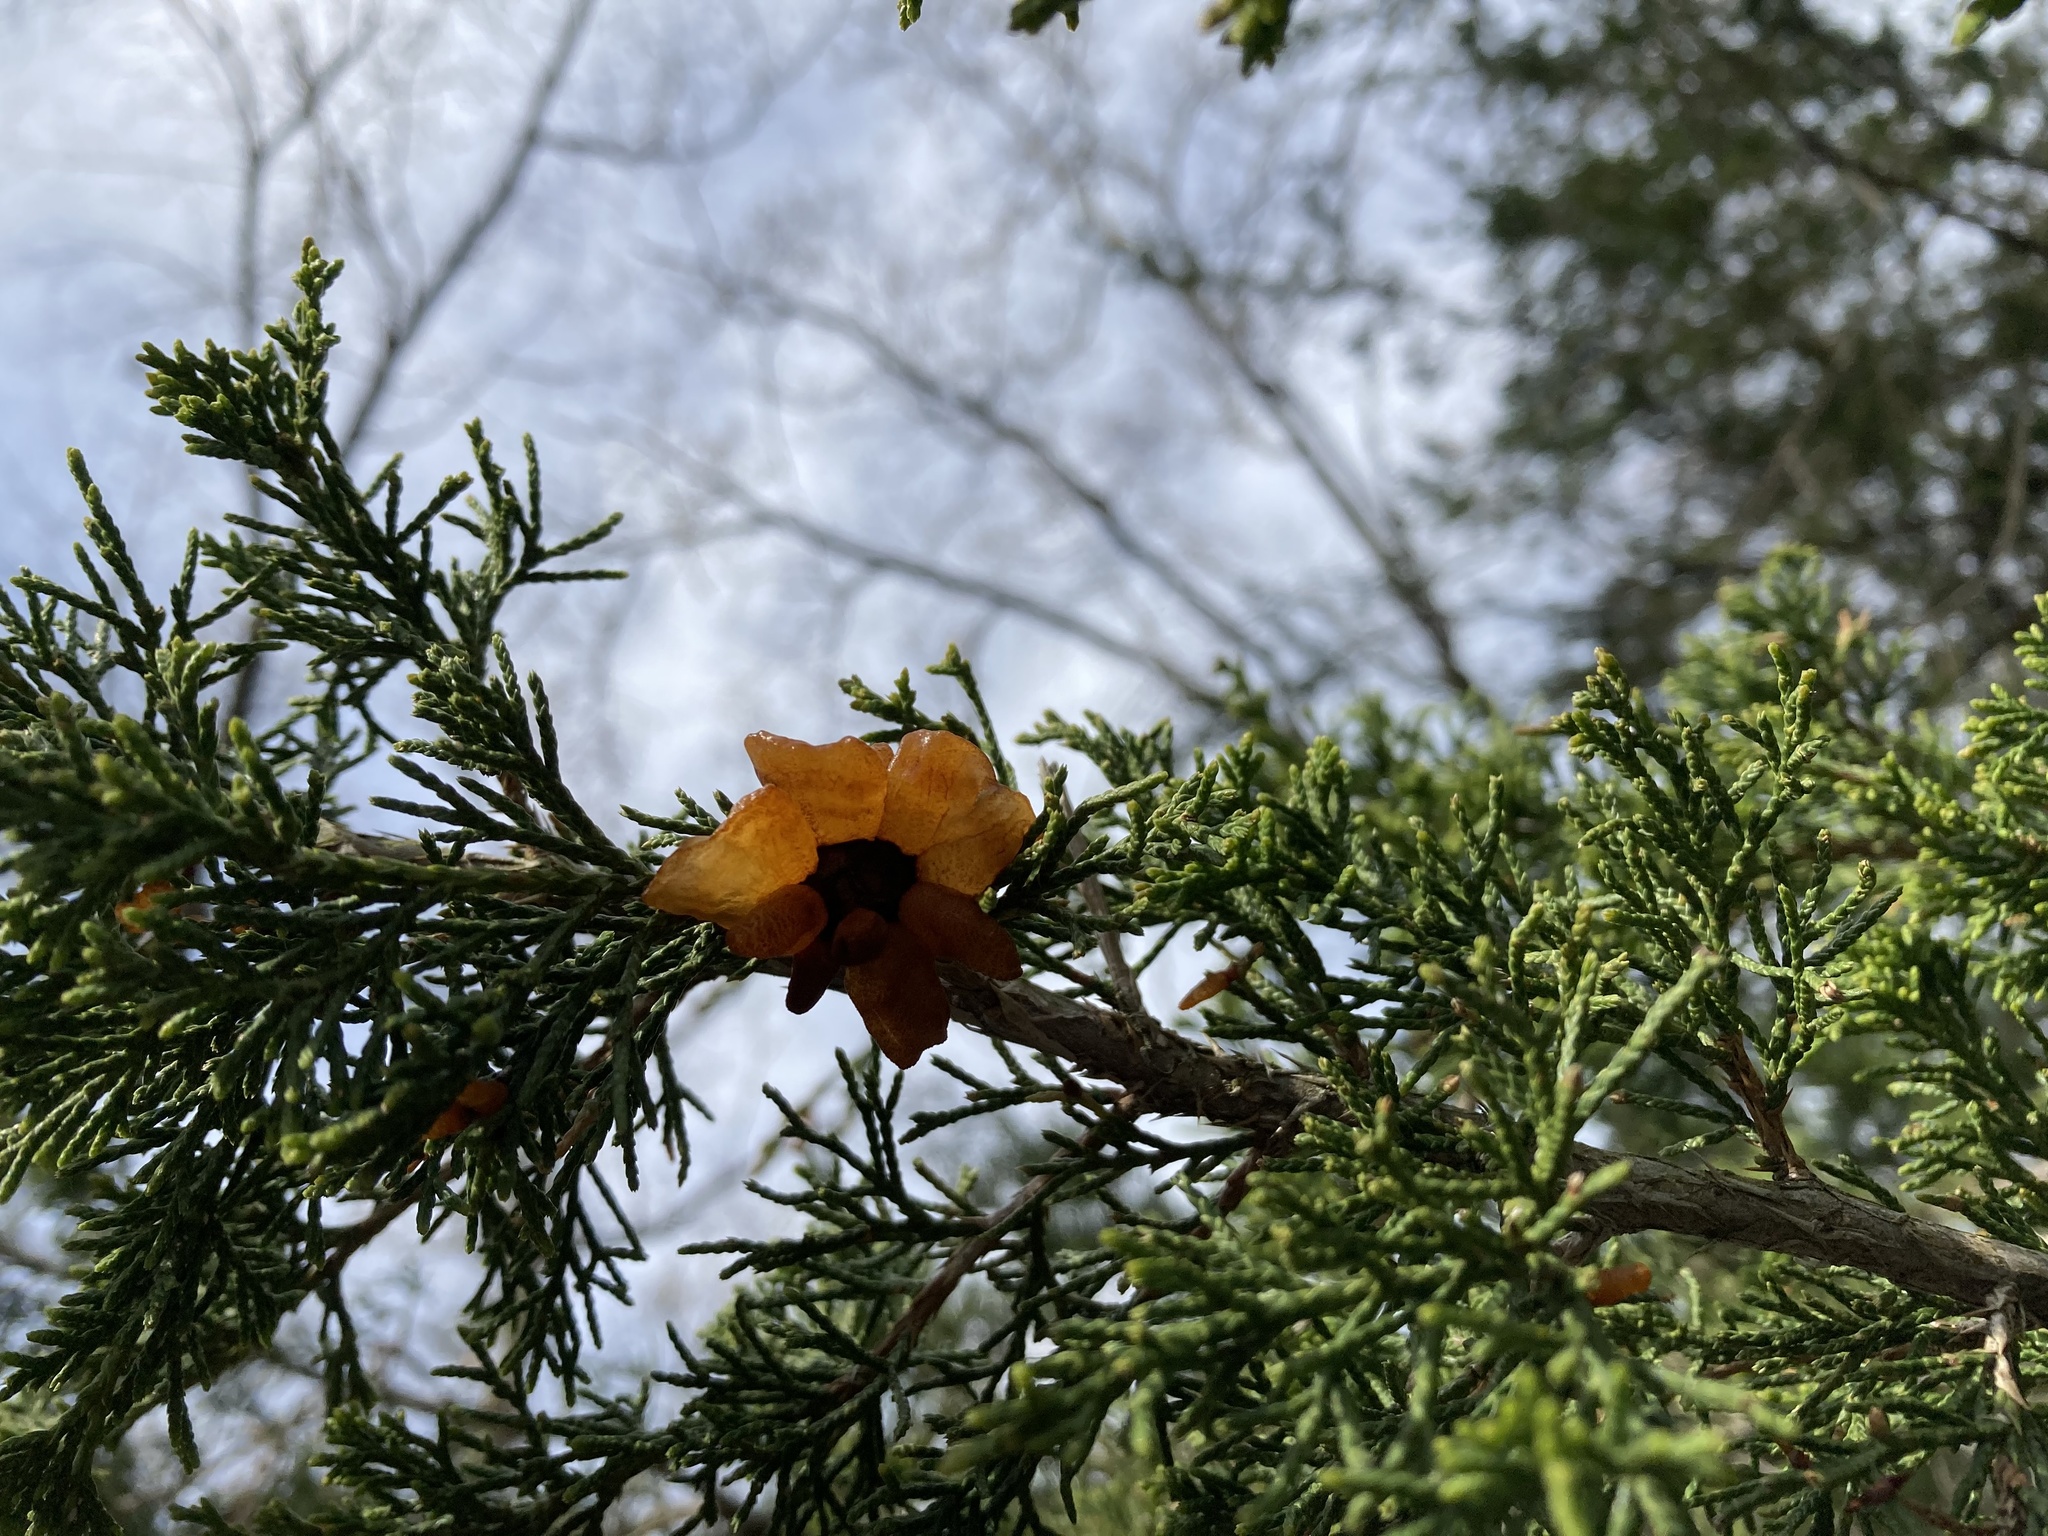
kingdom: Fungi
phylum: Basidiomycota
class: Pucciniomycetes
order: Pucciniales
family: Gymnosporangiaceae
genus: Gymnosporangium
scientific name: Gymnosporangium juniperi-virginianae
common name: Juniper-apple rust
